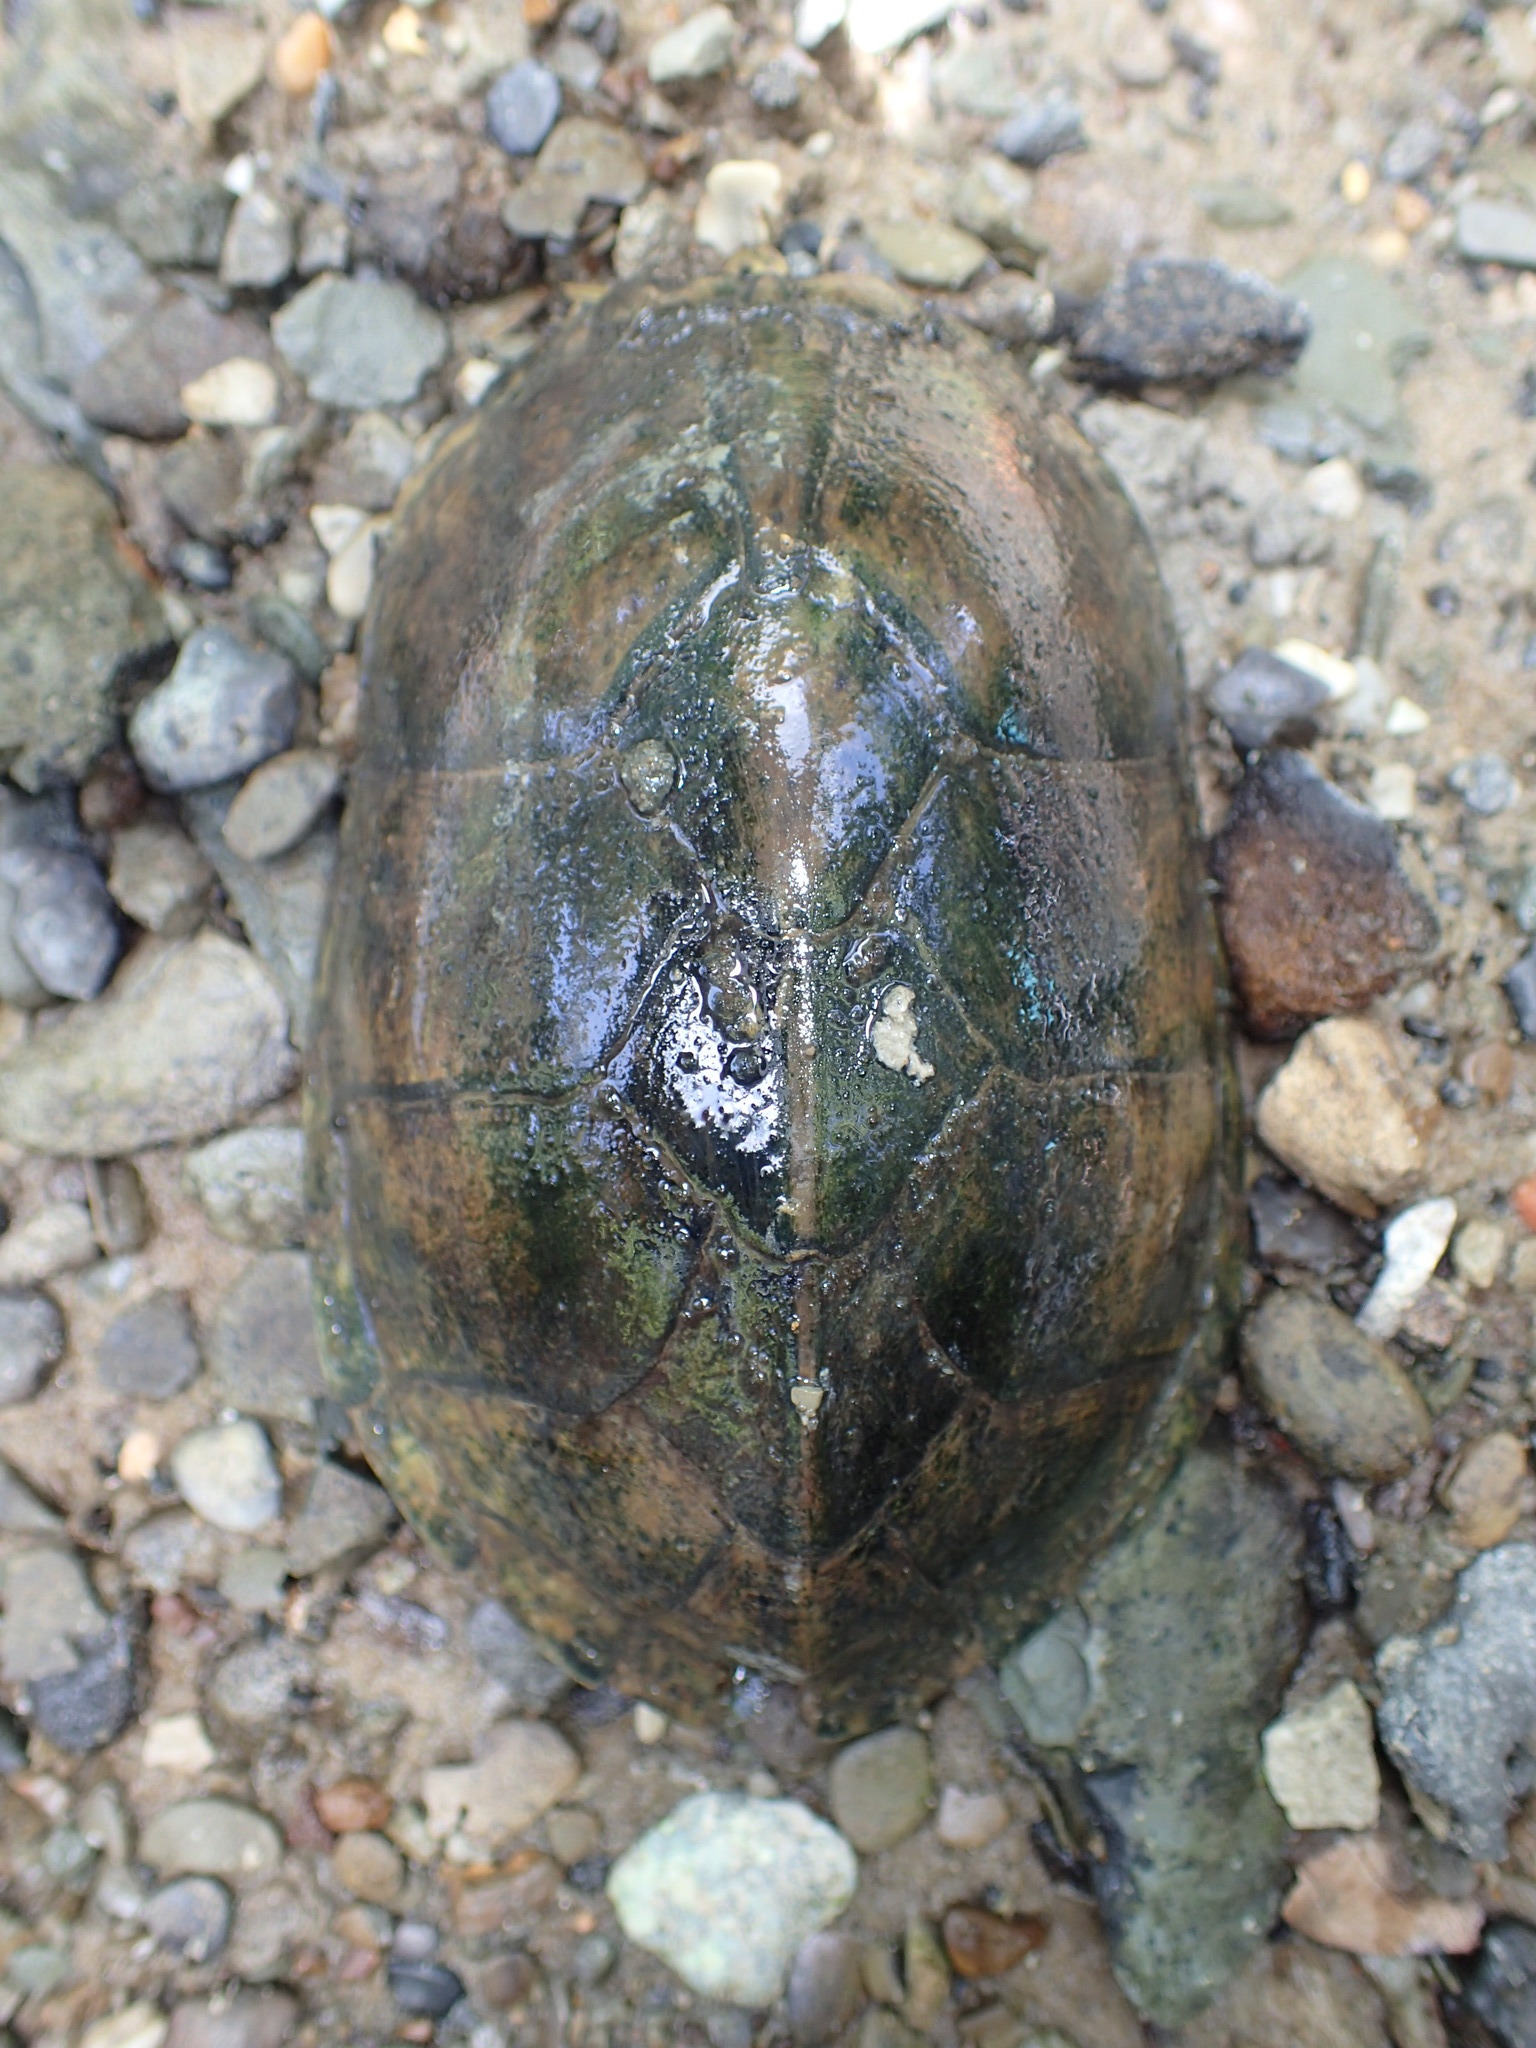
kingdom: Animalia
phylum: Chordata
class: Testudines
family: Kinosternidae
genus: Sternotherus
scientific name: Sternotherus peltifer
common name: Stripeneck musk turtle
